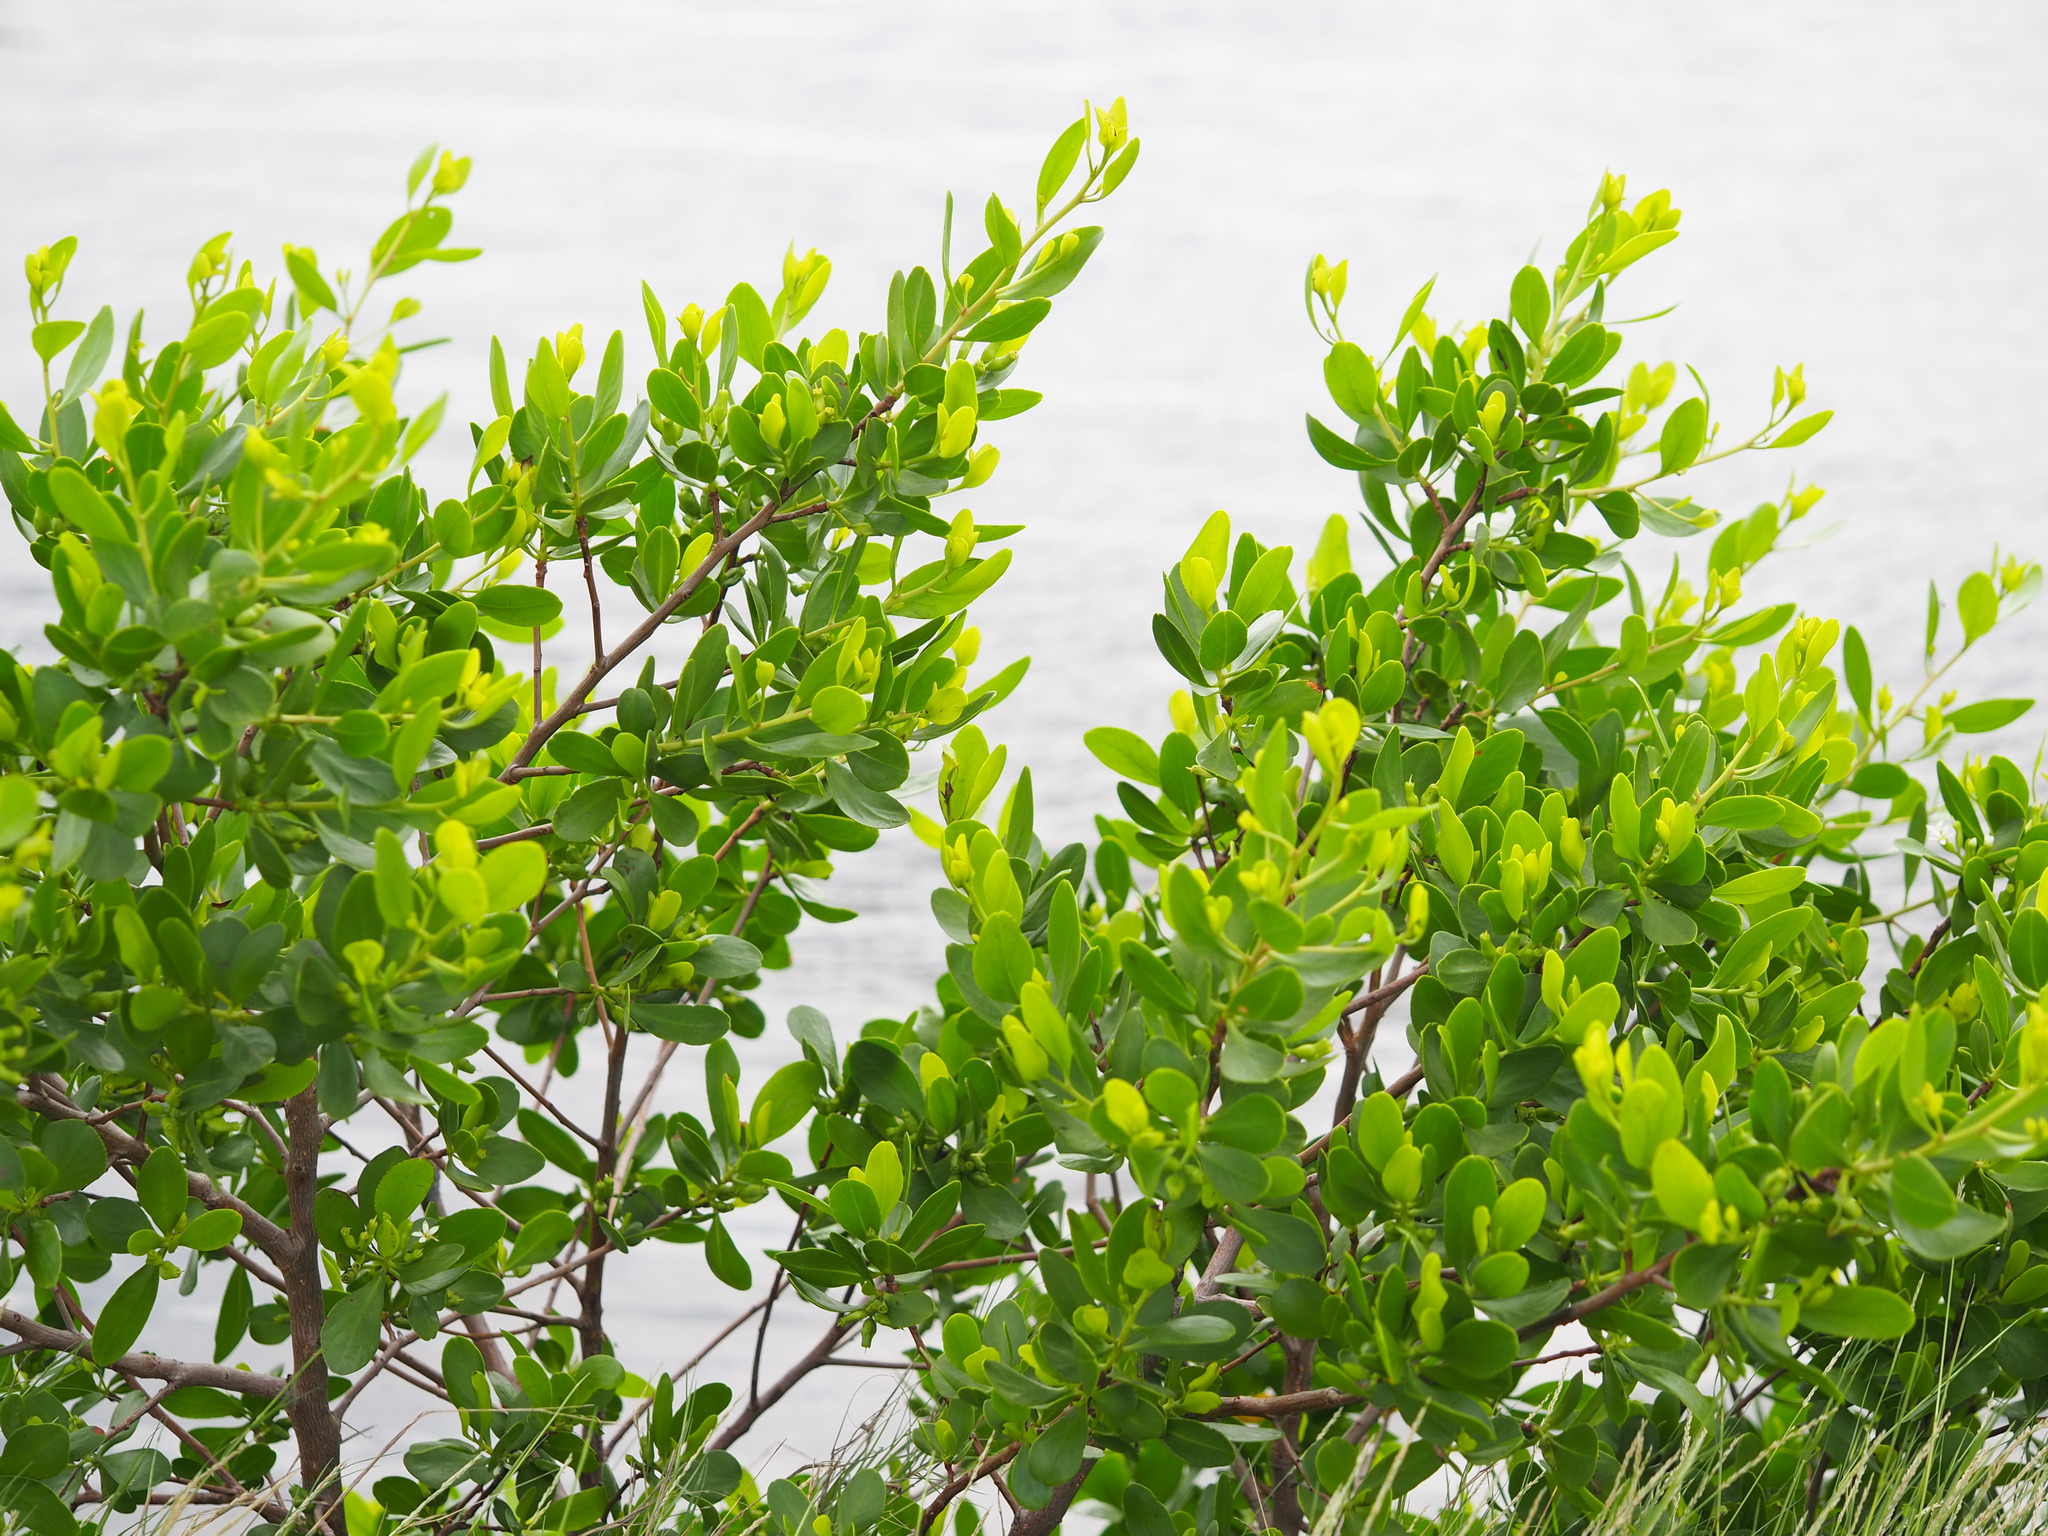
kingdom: Plantae
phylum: Tracheophyta
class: Magnoliopsida
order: Myrtales
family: Combretaceae
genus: Lumnitzera
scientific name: Lumnitzera racemosa
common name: White-flowered black mangrove
